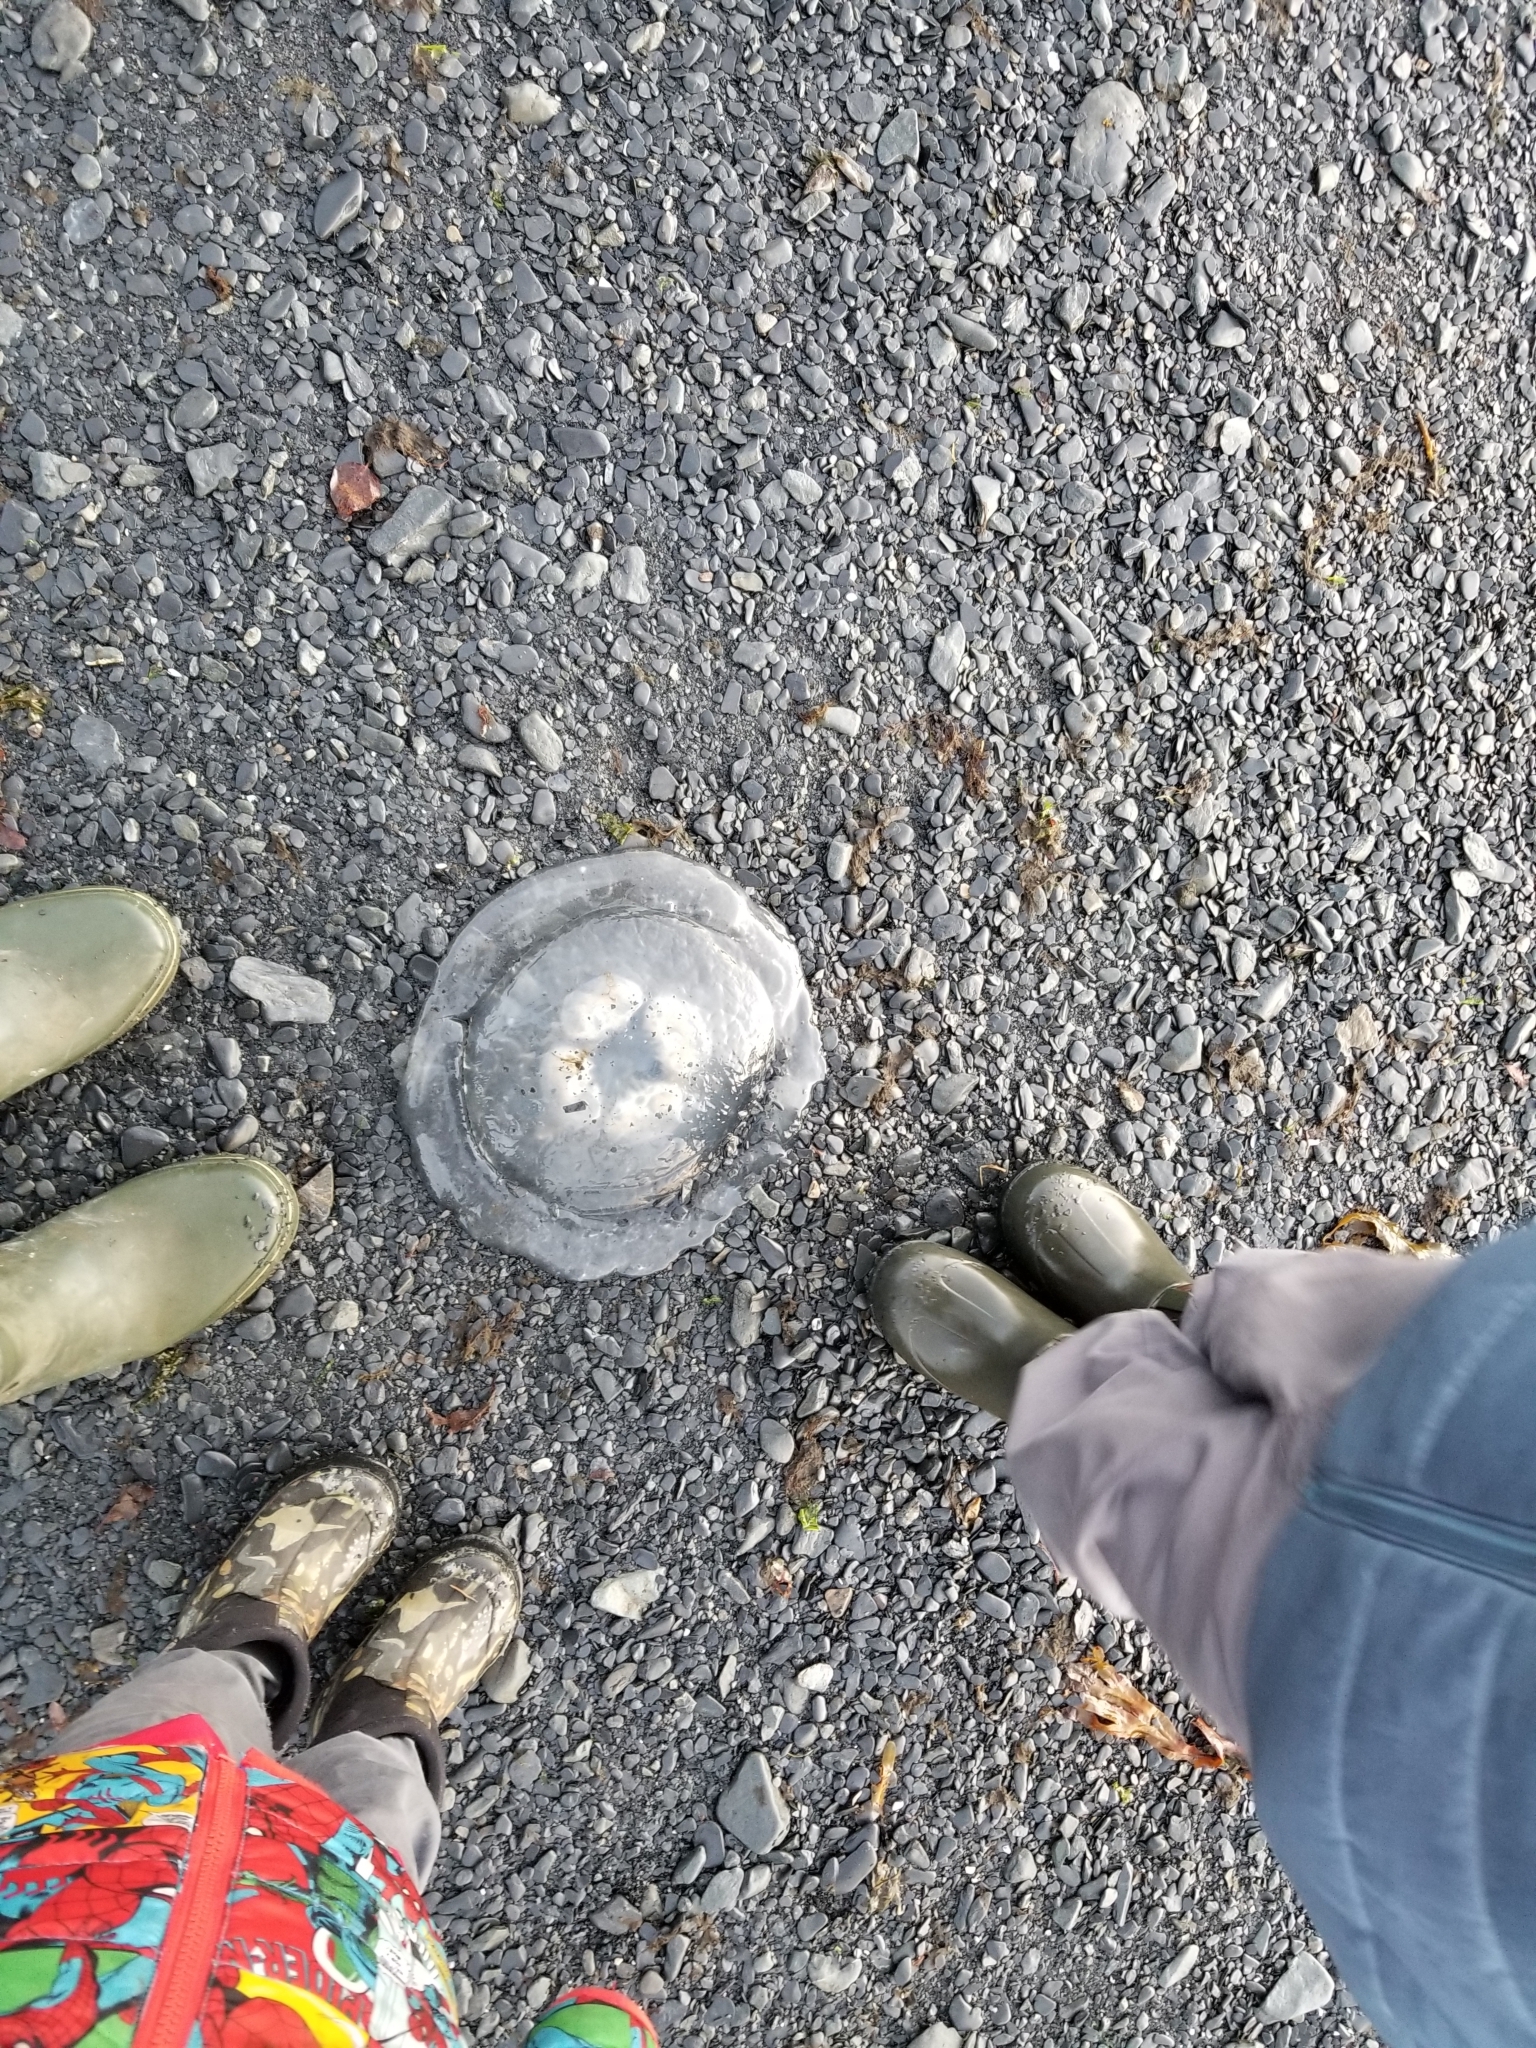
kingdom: Animalia
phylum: Cnidaria
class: Scyphozoa
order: Semaeostomeae
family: Ulmaridae
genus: Aurelia
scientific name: Aurelia labiata
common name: Pacific moon jelly
